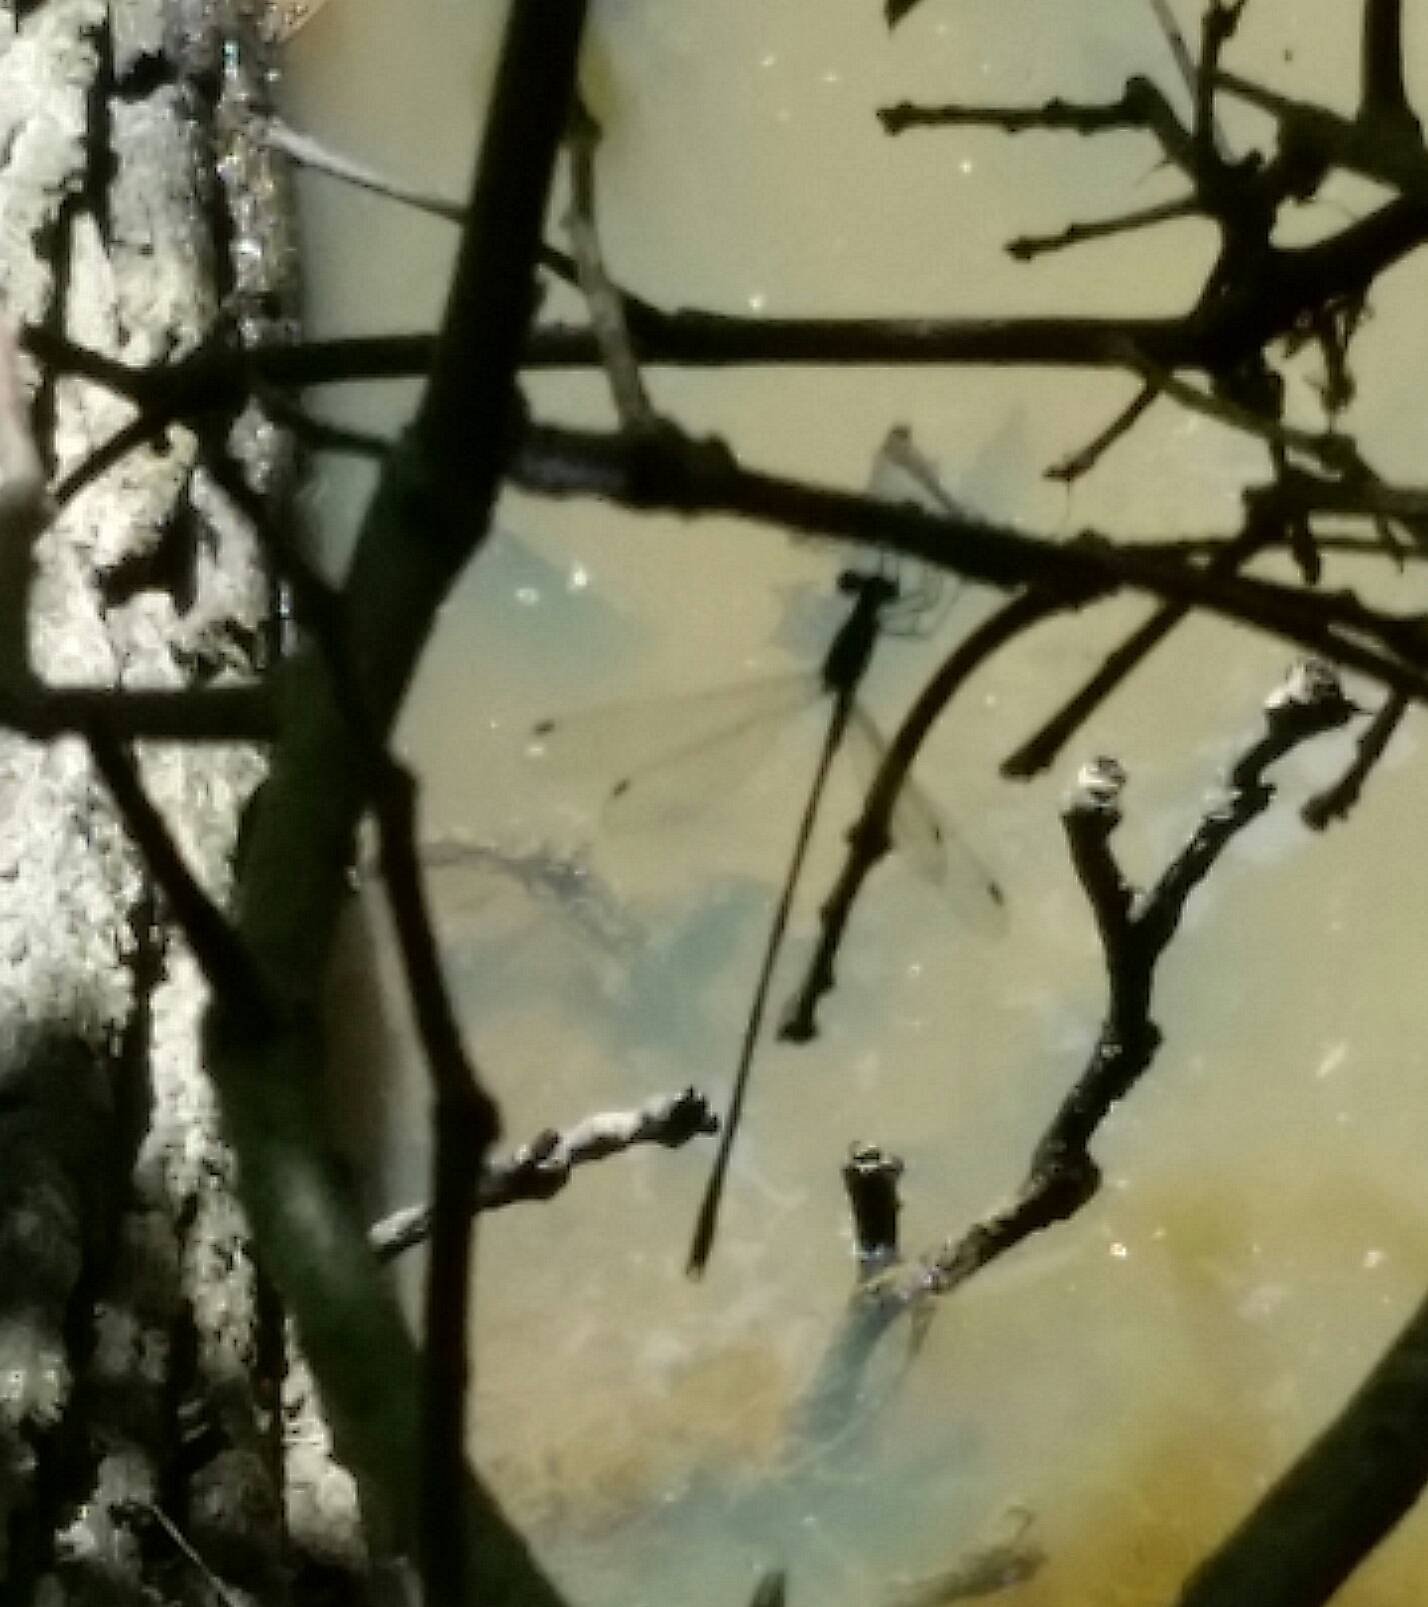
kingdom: Animalia
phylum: Arthropoda
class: Insecta
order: Odonata
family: Lestidae
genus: Lestes
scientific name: Lestes rectangularis
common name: Slender spreadwing
